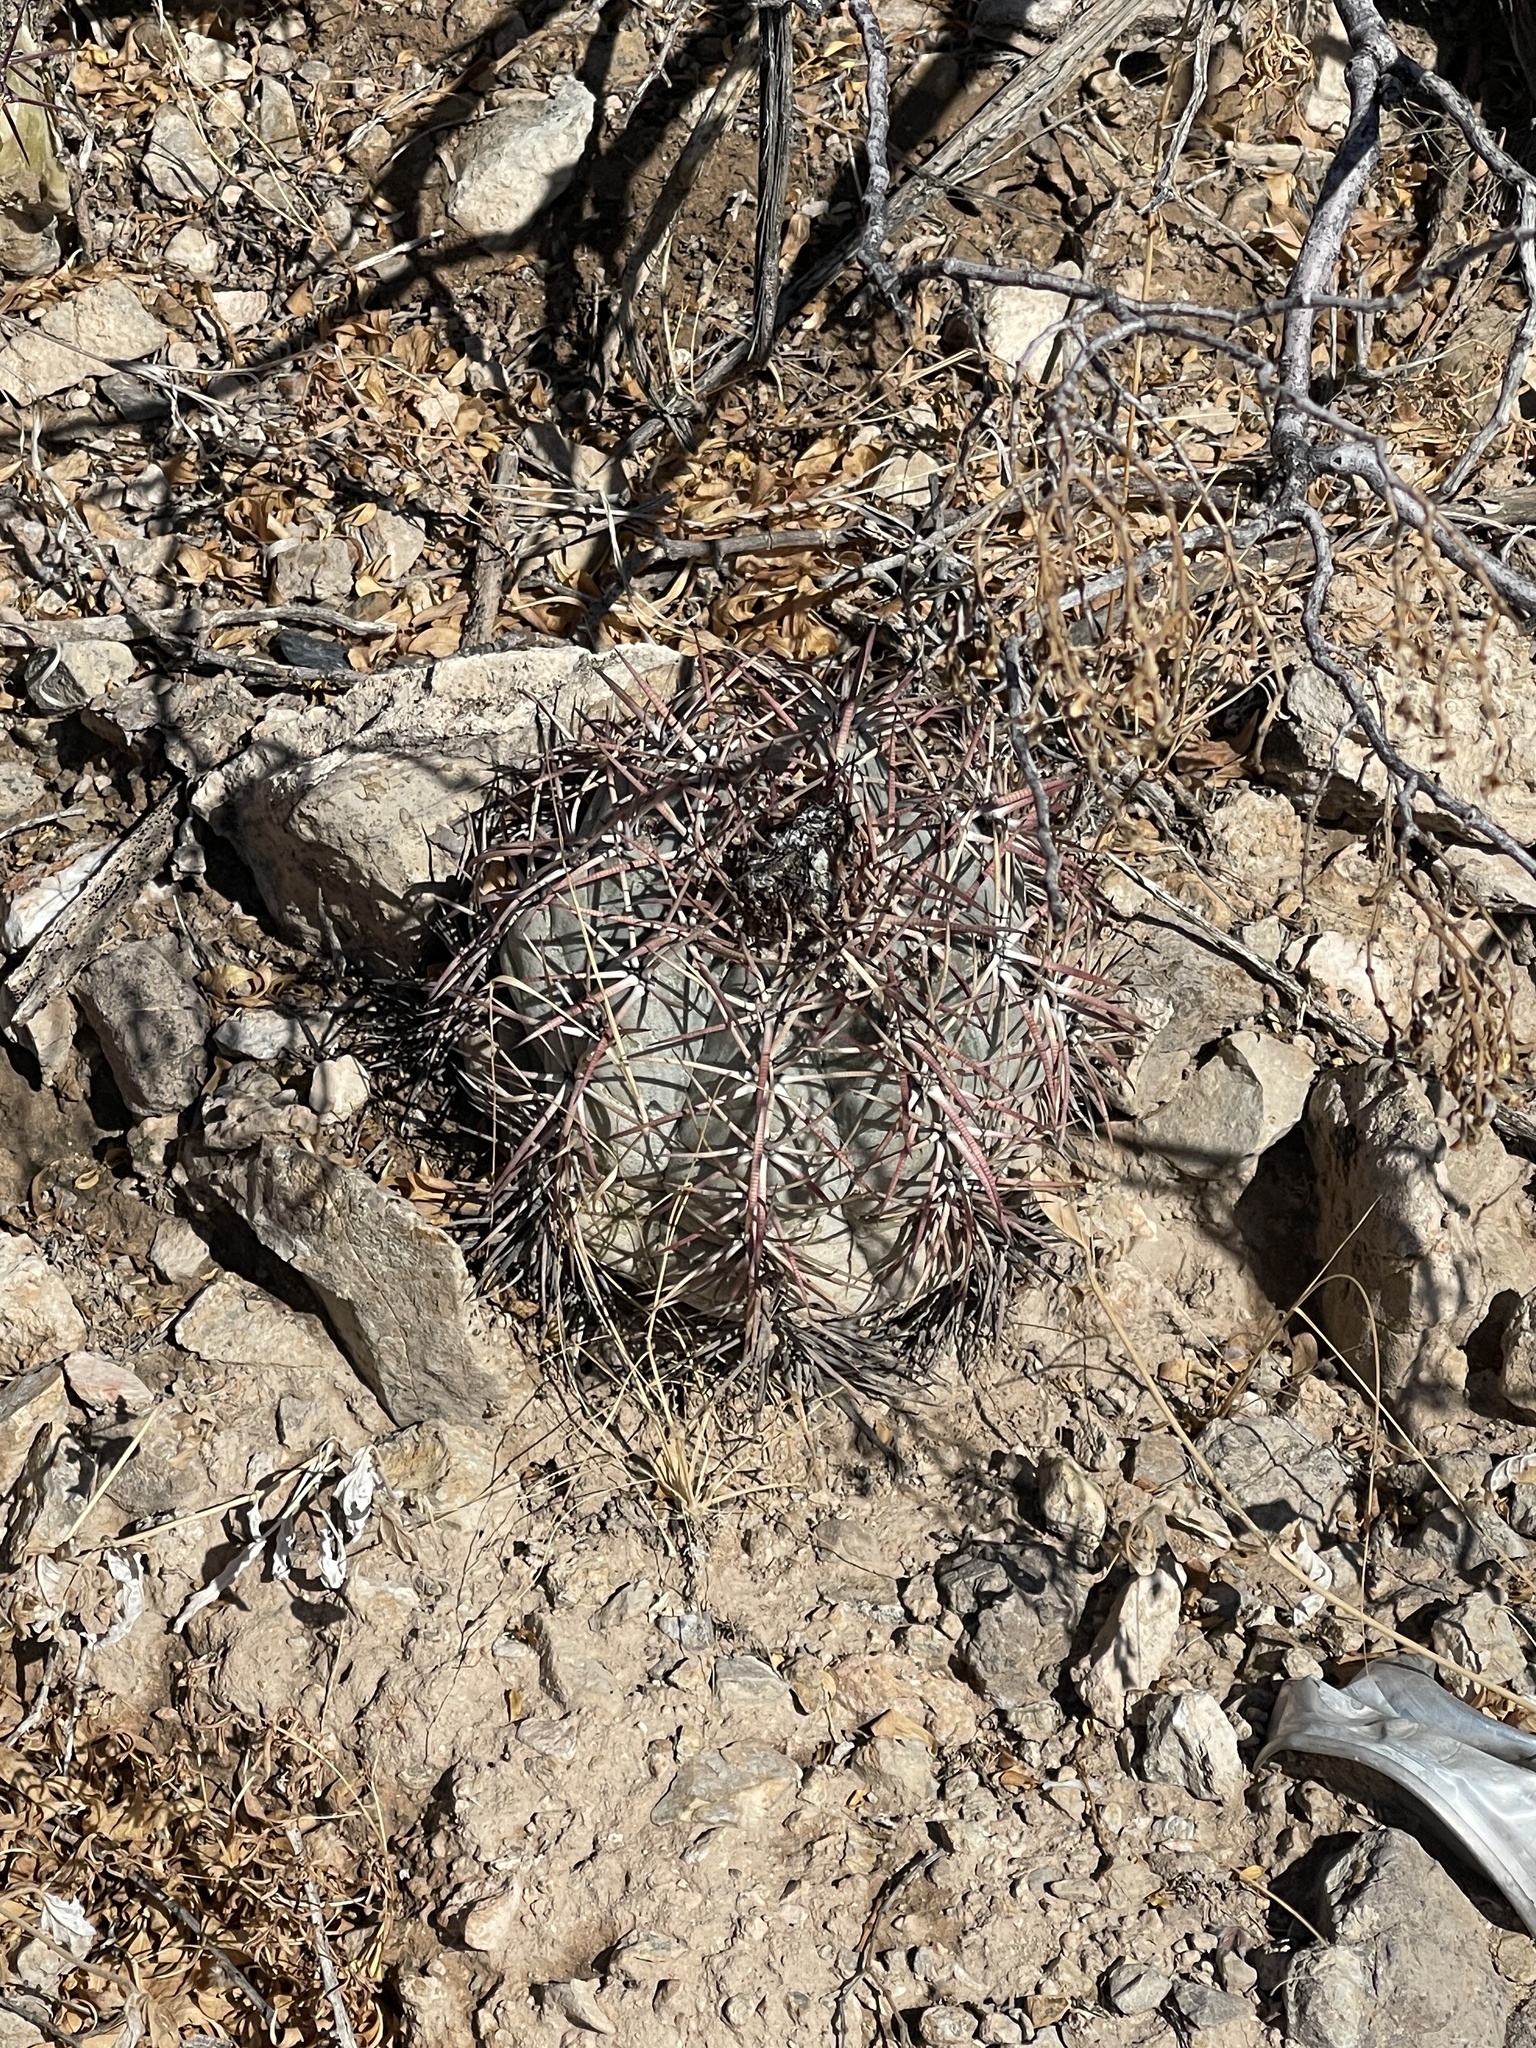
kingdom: Plantae
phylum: Tracheophyta
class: Magnoliopsida
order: Caryophyllales
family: Cactaceae
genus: Echinocactus
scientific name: Echinocactus horizonthalonius
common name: Devilshead
